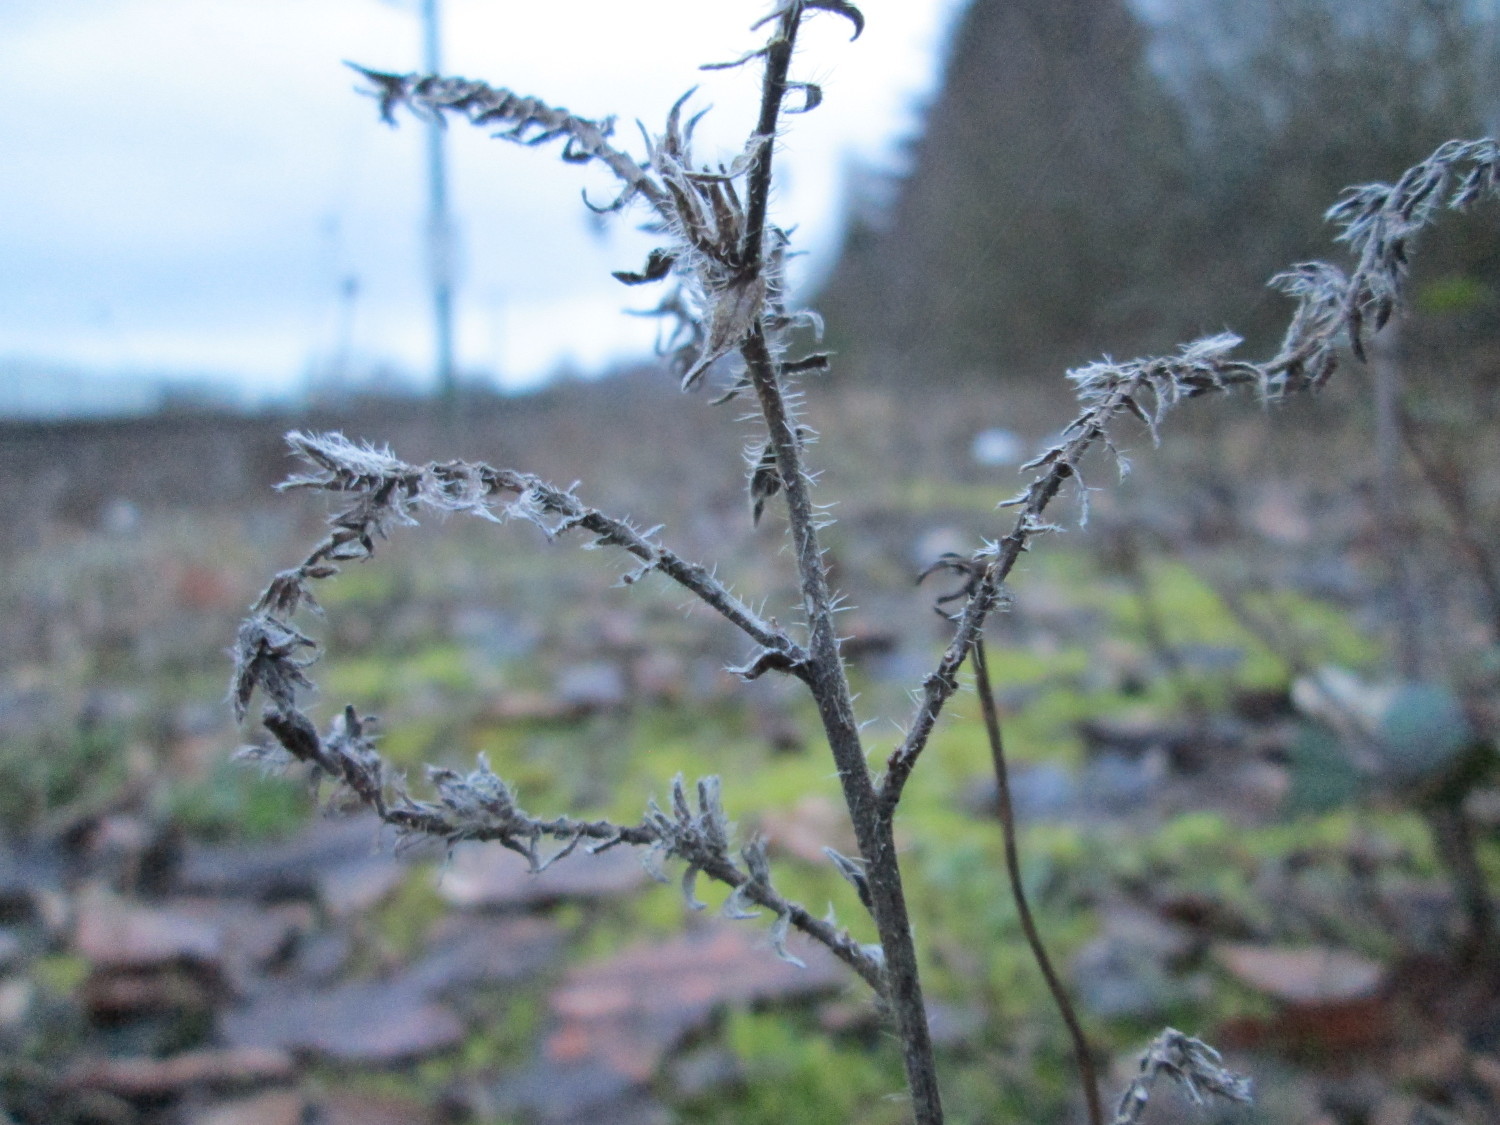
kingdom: Plantae
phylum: Tracheophyta
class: Magnoliopsida
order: Boraginales
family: Boraginaceae
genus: Echium
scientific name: Echium vulgare
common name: Common viper's bugloss
